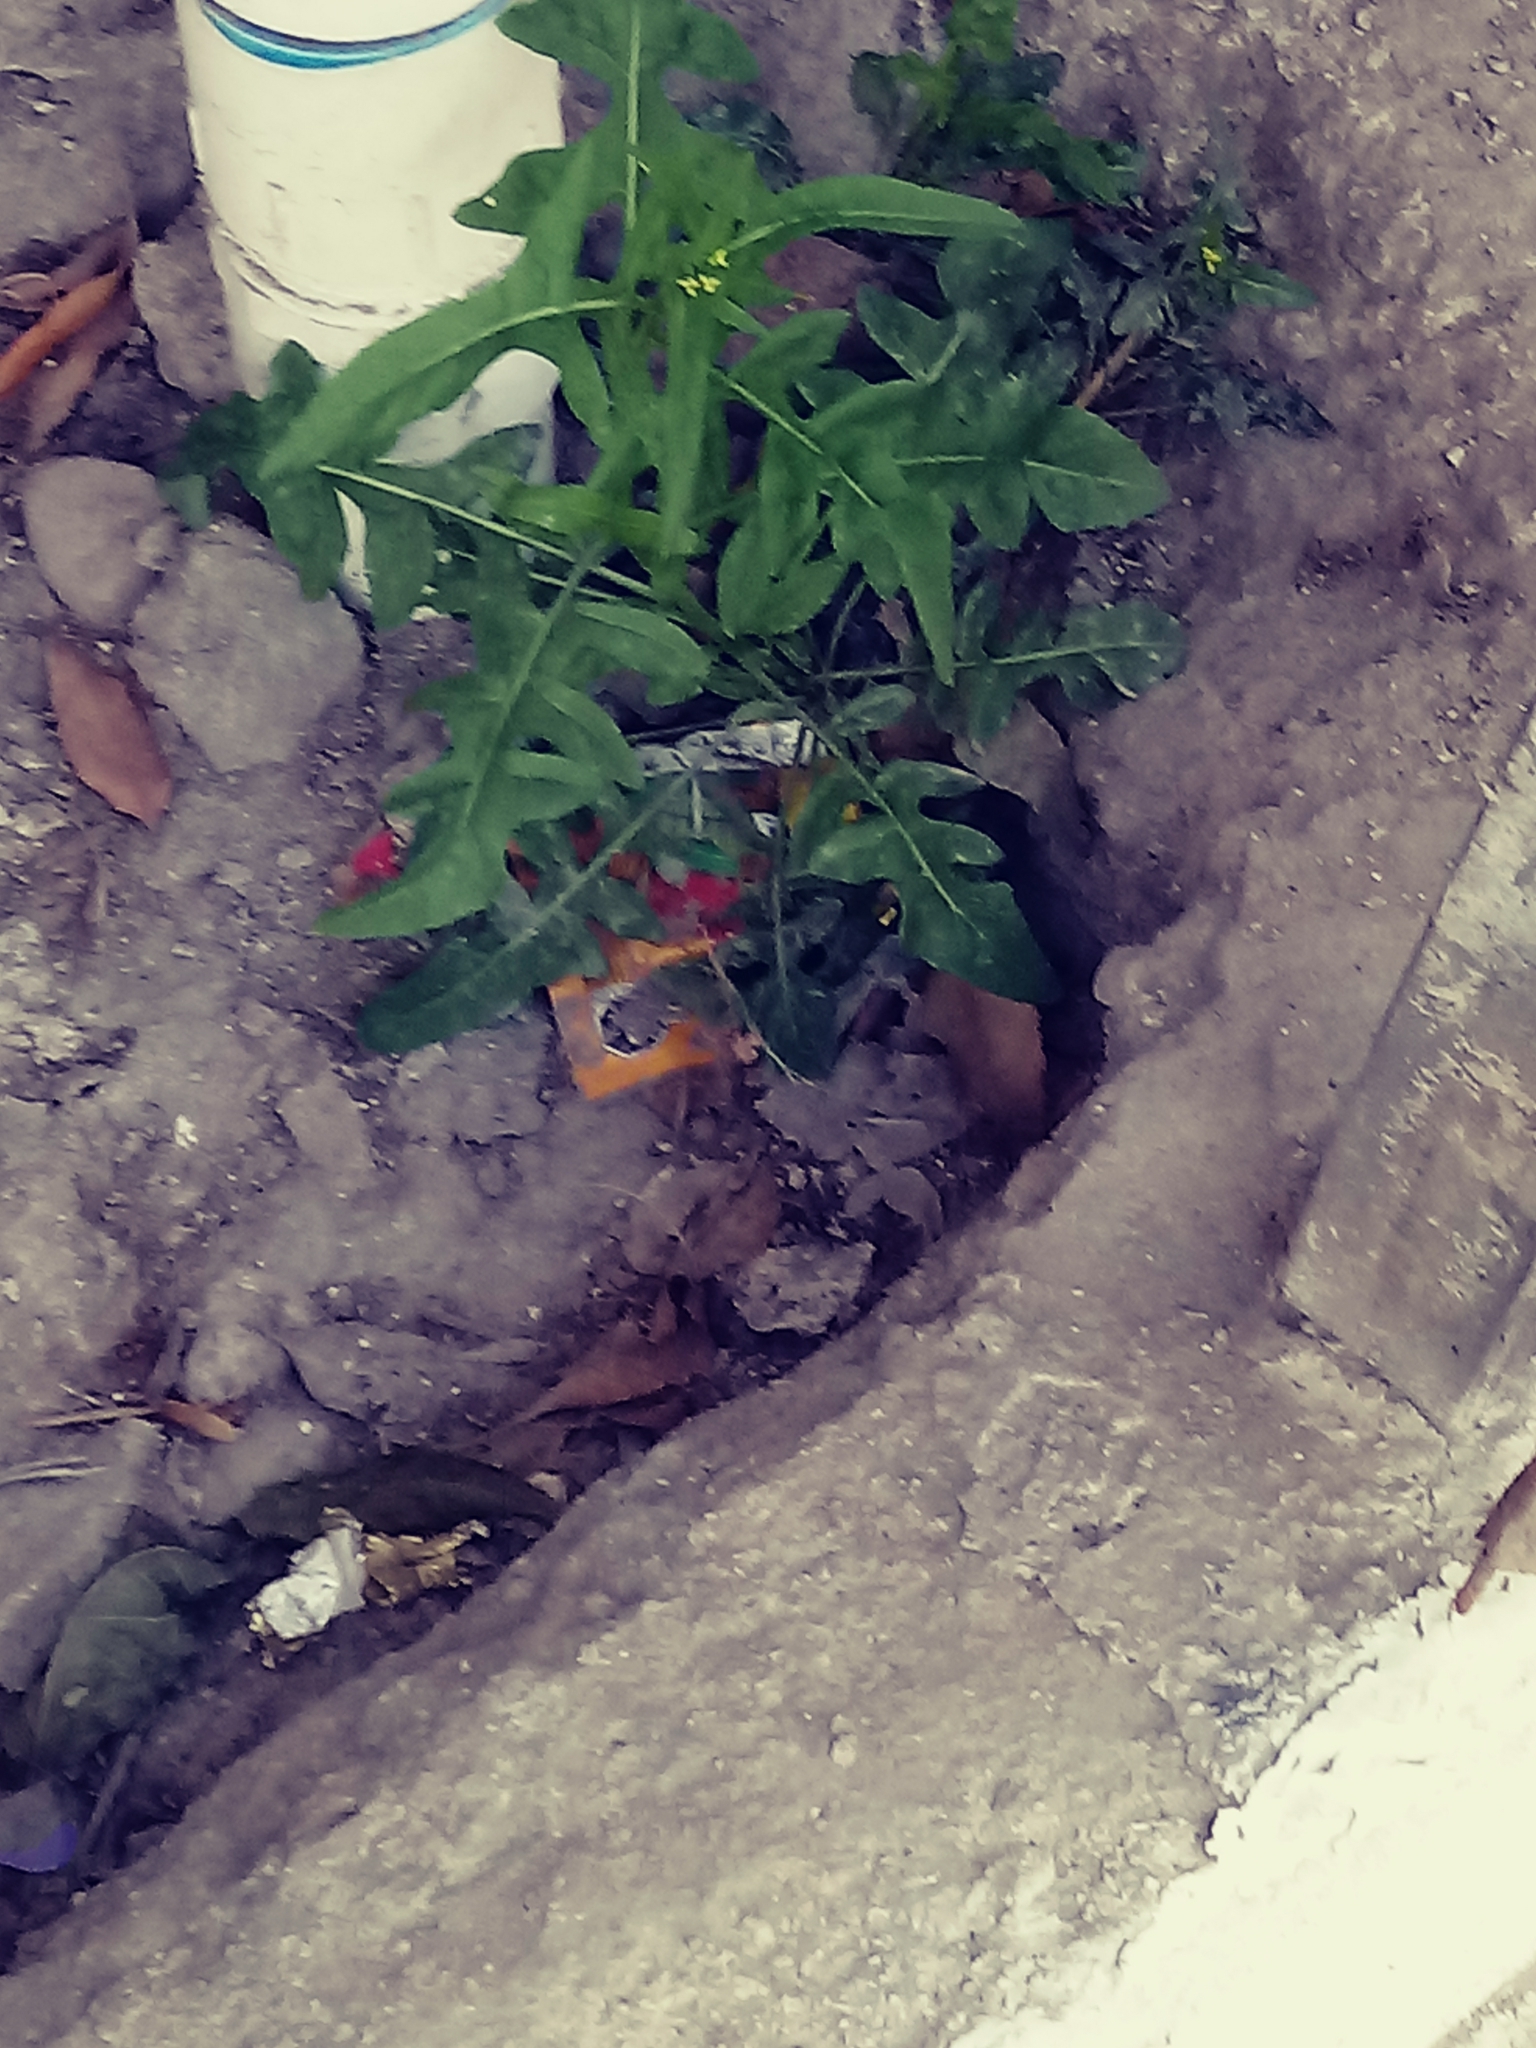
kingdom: Plantae
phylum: Tracheophyta
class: Magnoliopsida
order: Brassicales
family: Brassicaceae
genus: Sisymbrium
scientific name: Sisymbrium irio
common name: London rocket
